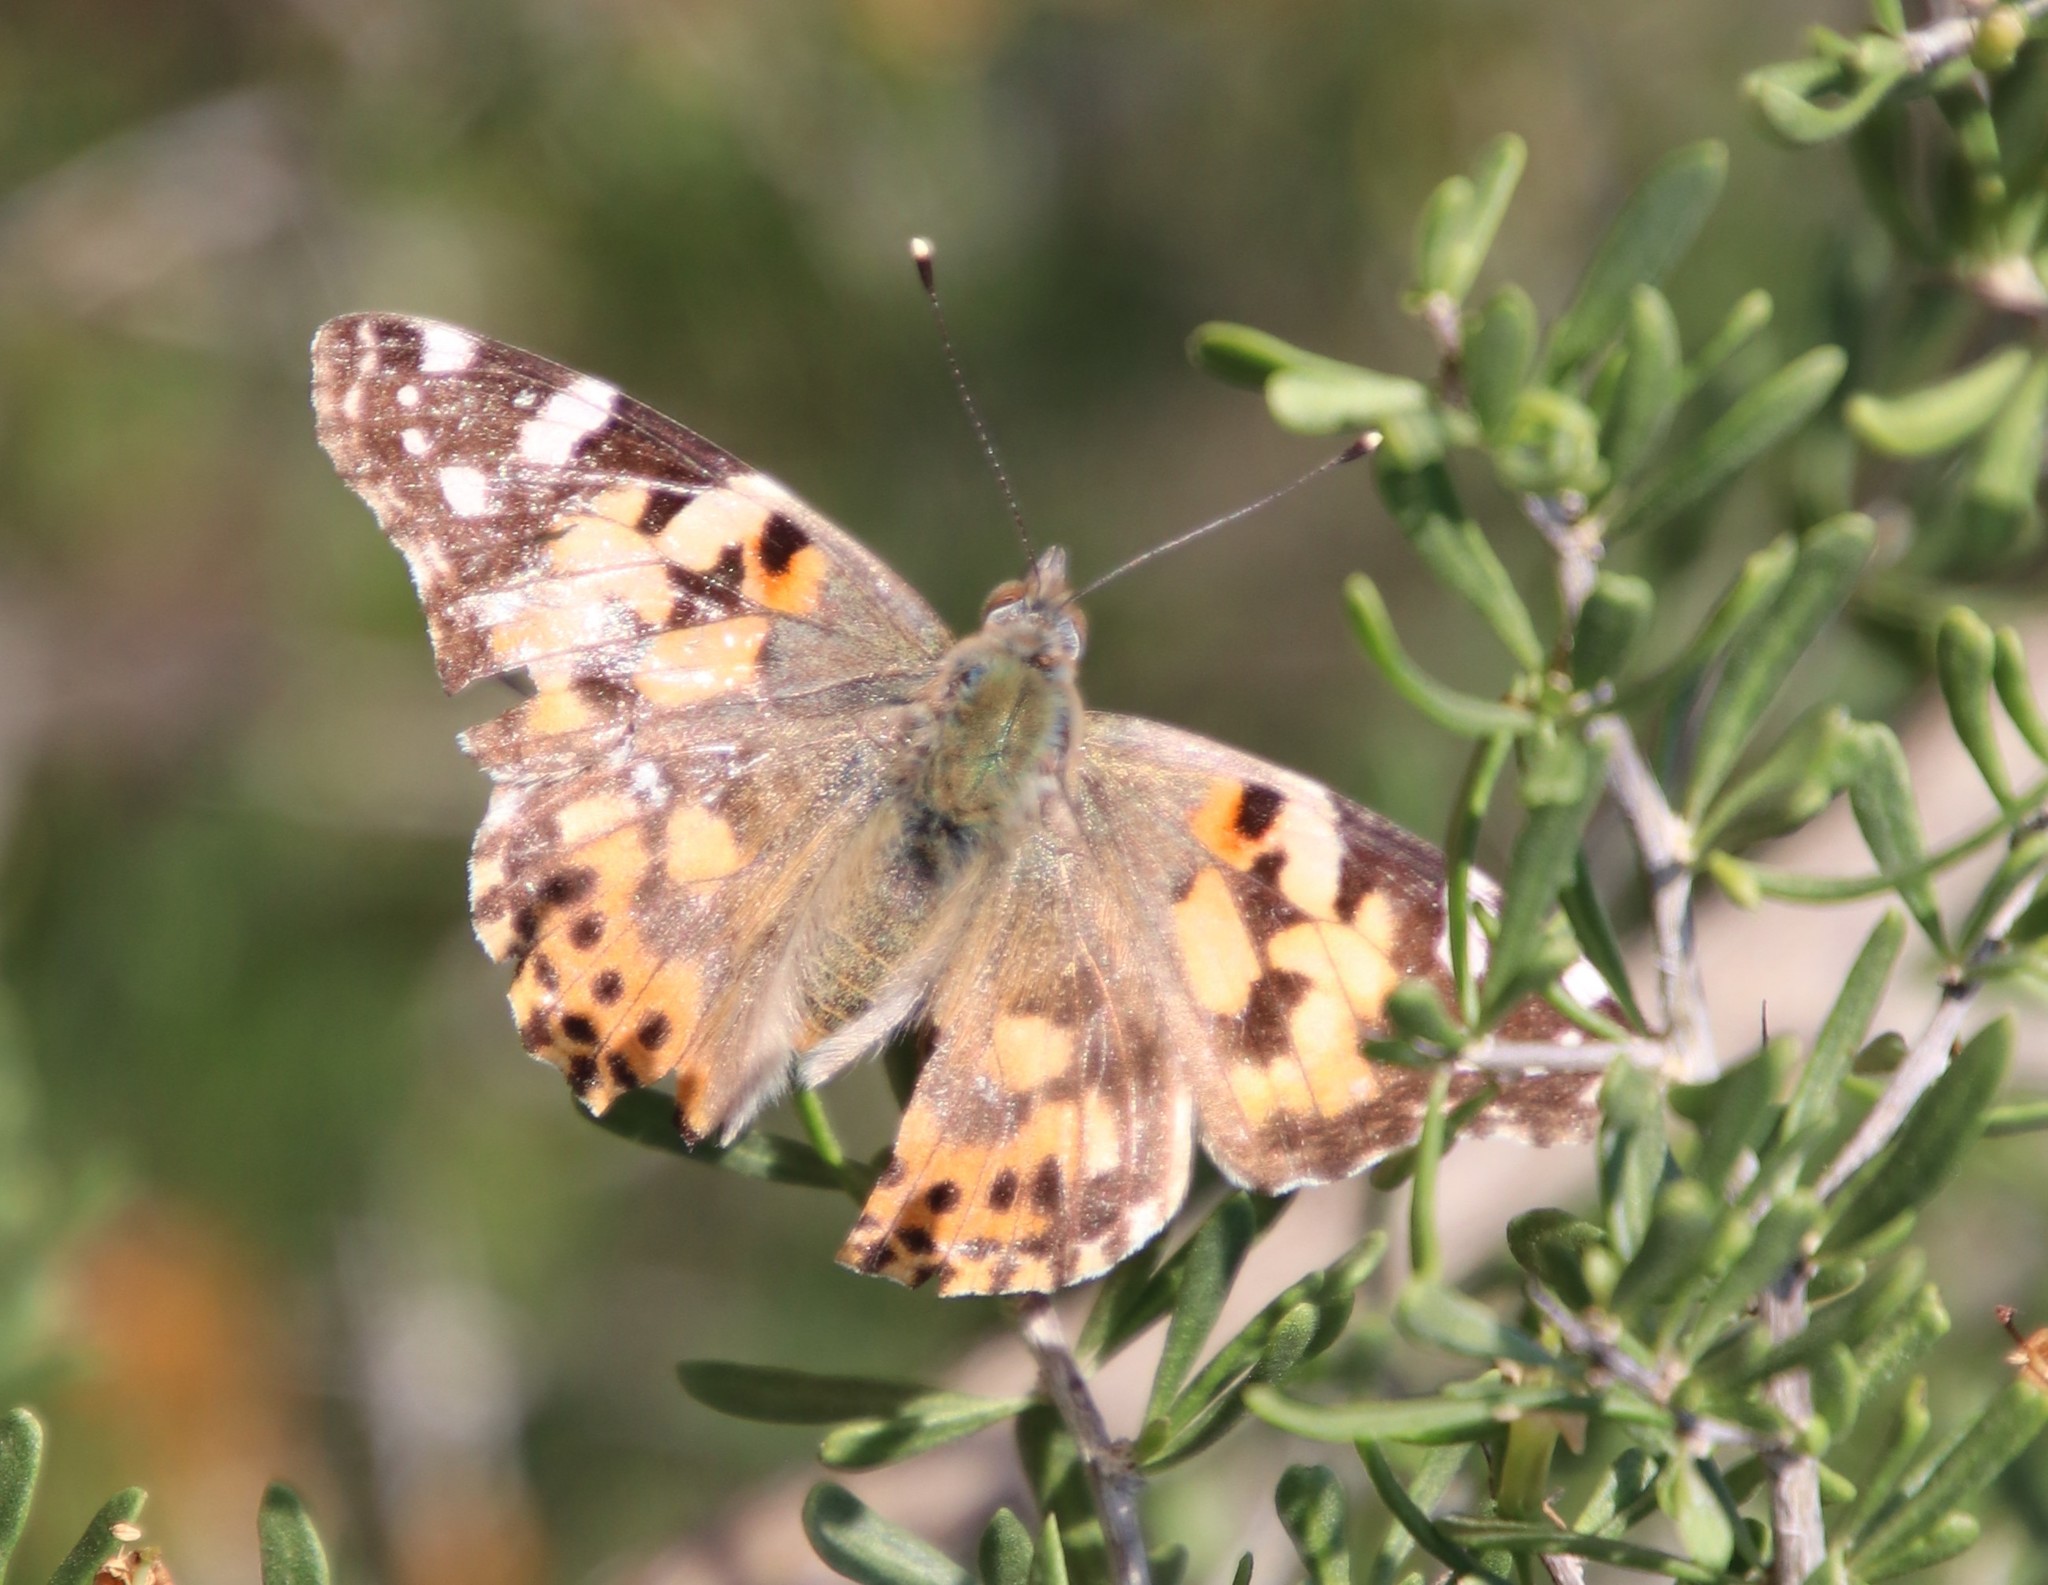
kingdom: Animalia
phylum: Arthropoda
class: Insecta
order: Lepidoptera
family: Nymphalidae
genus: Vanessa
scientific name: Vanessa cardui
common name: Painted lady
